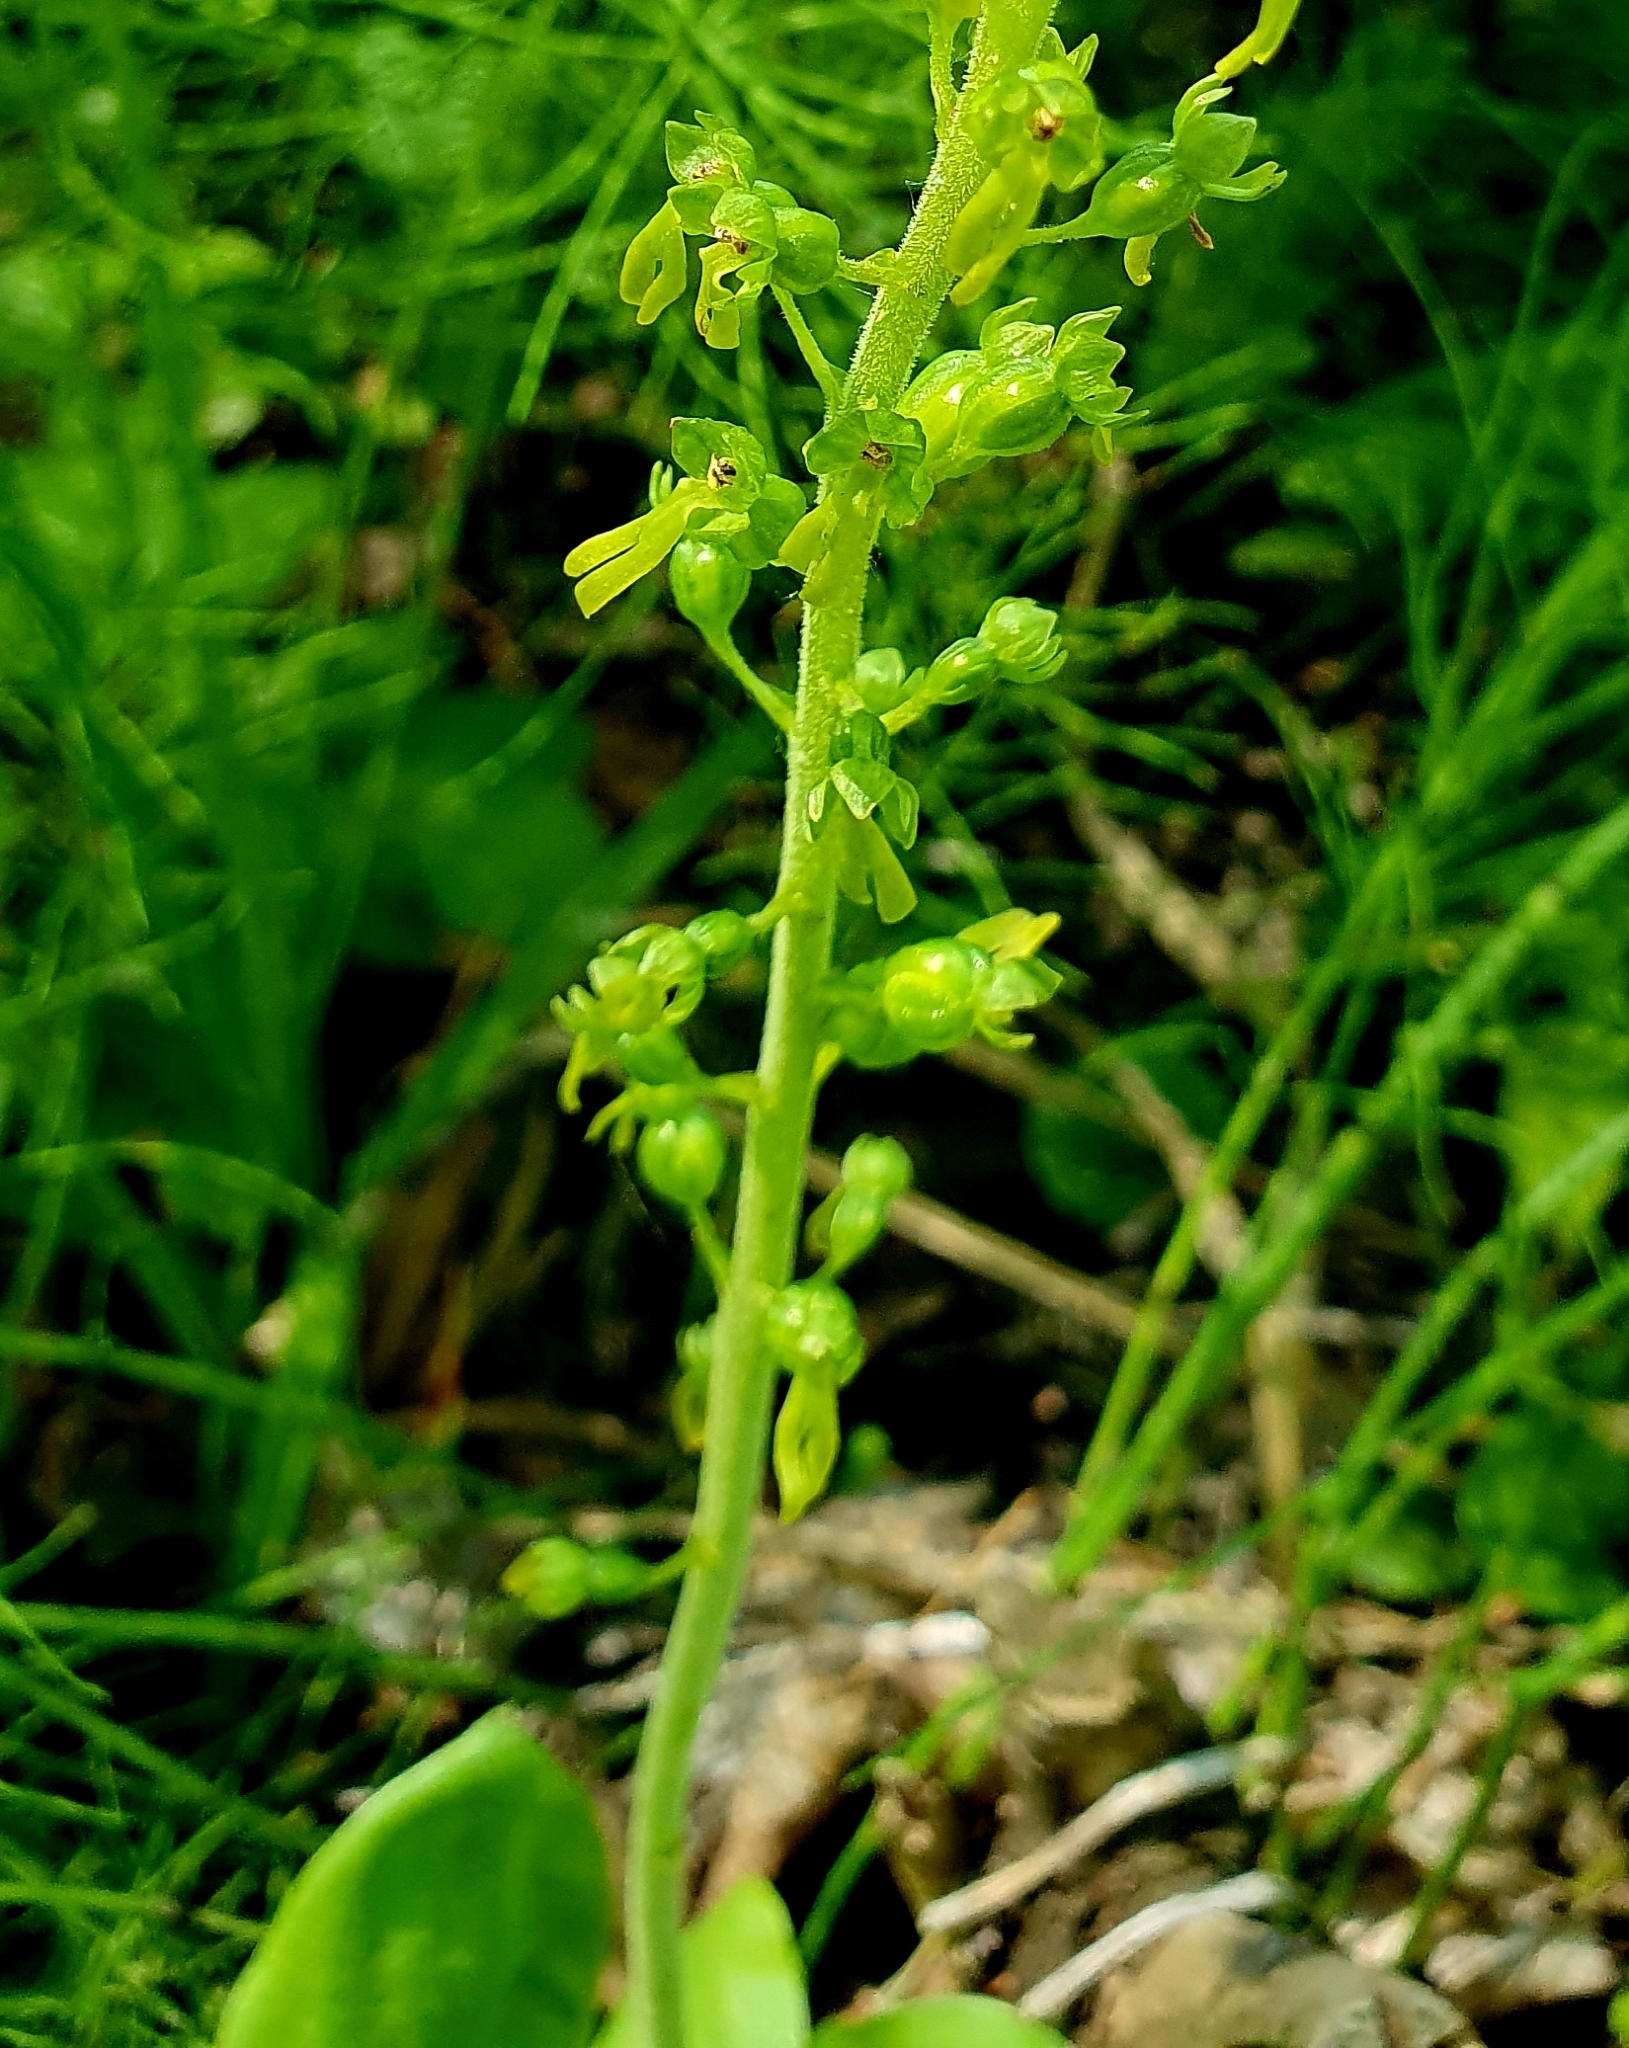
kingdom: Plantae
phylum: Tracheophyta
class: Liliopsida
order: Asparagales
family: Orchidaceae
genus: Neottia
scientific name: Neottia ovata
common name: Common twayblade
